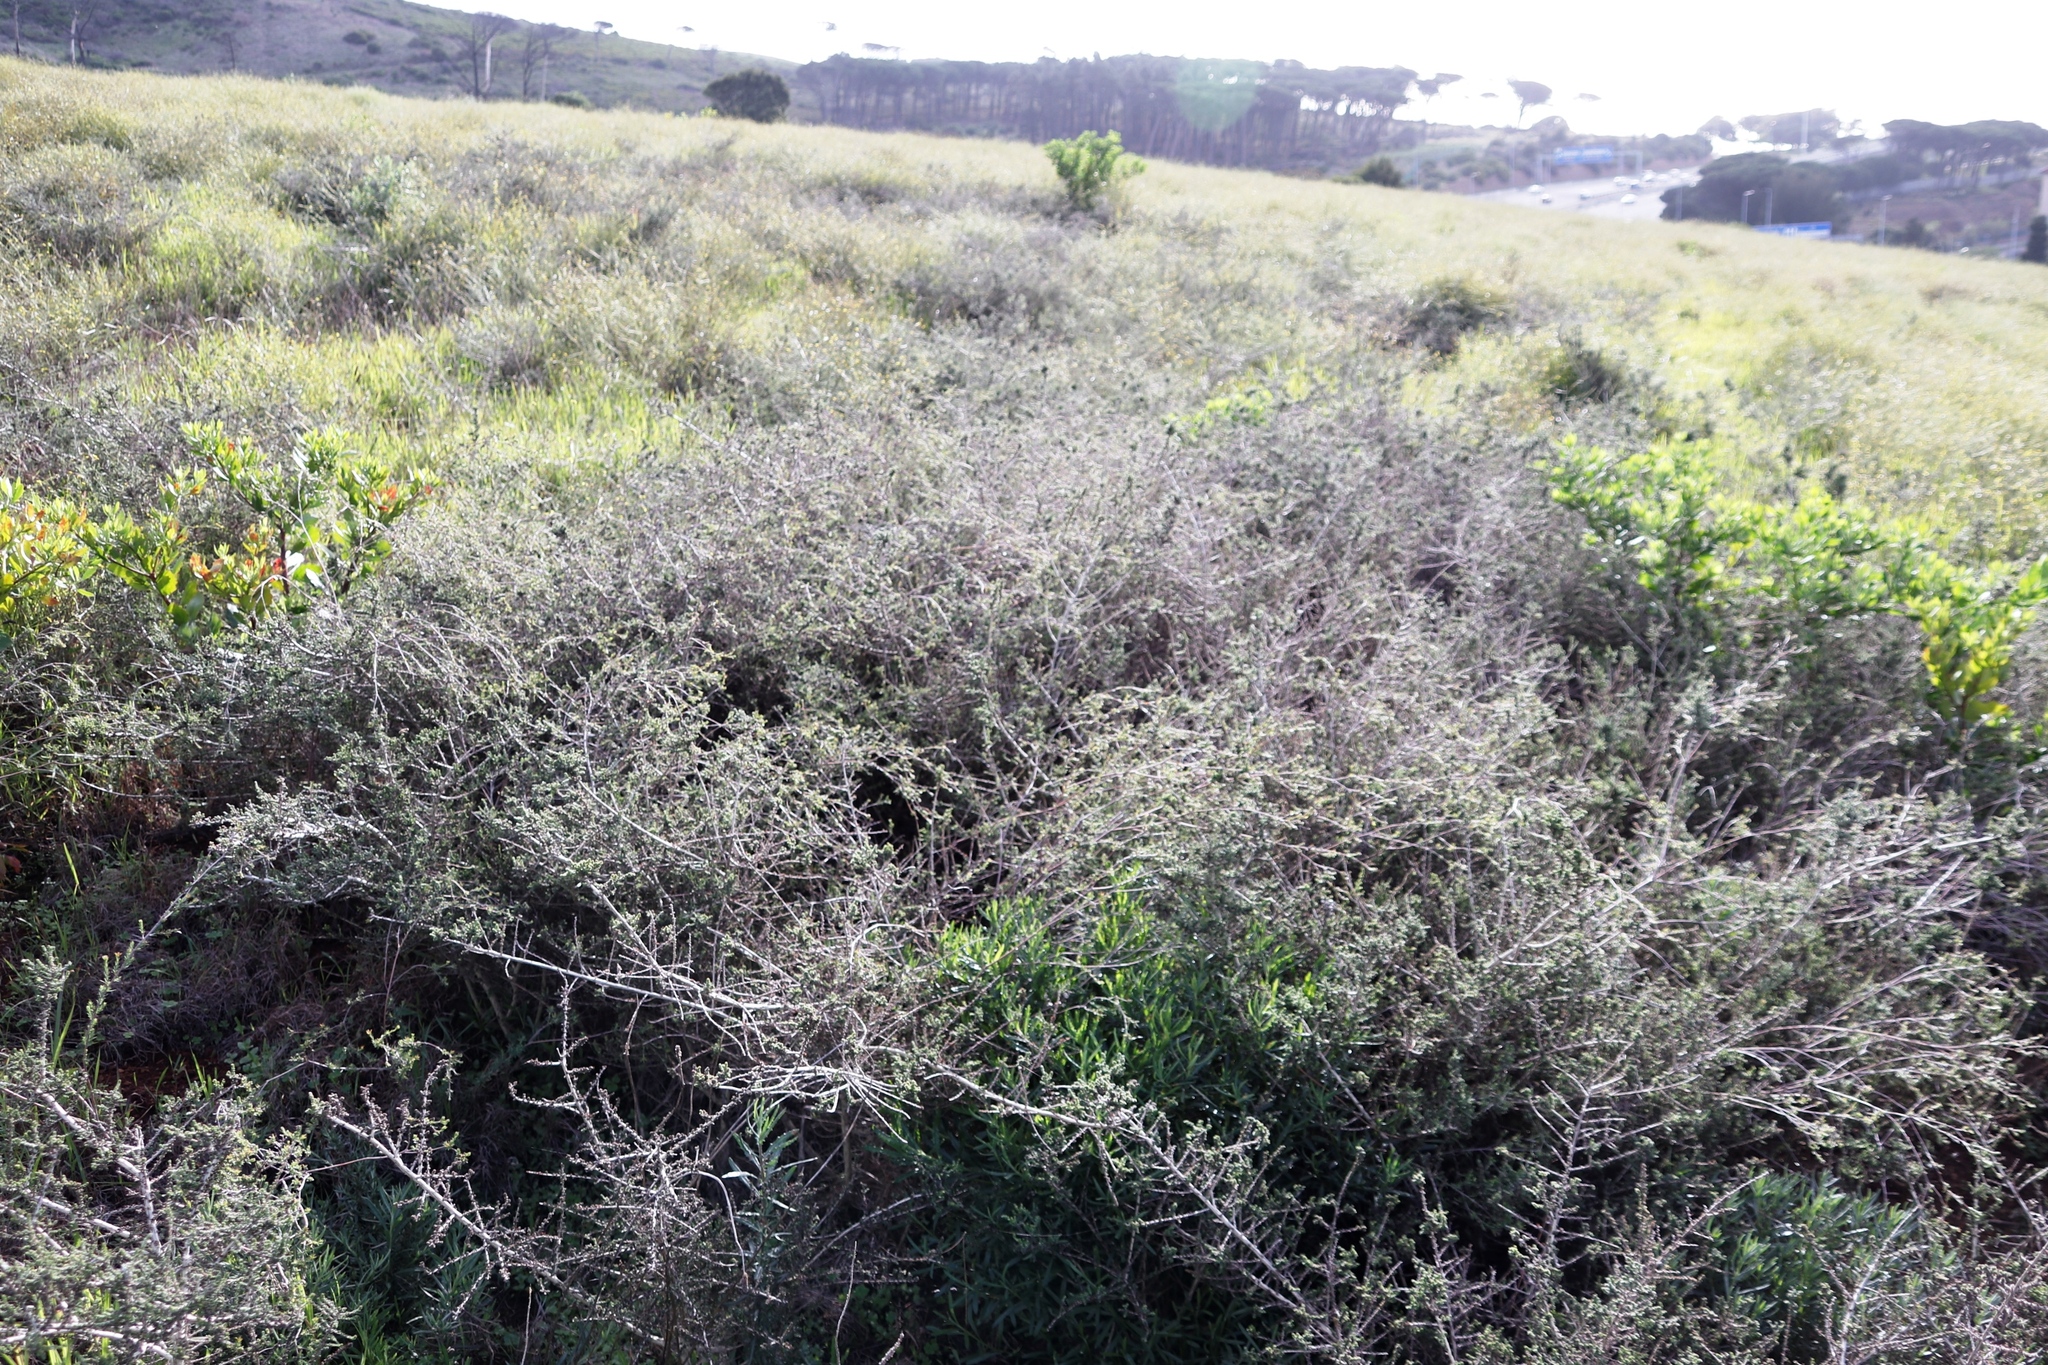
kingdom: Plantae
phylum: Tracheophyta
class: Magnoliopsida
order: Fabales
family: Fabaceae
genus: Aspalathus
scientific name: Aspalathus hispida
